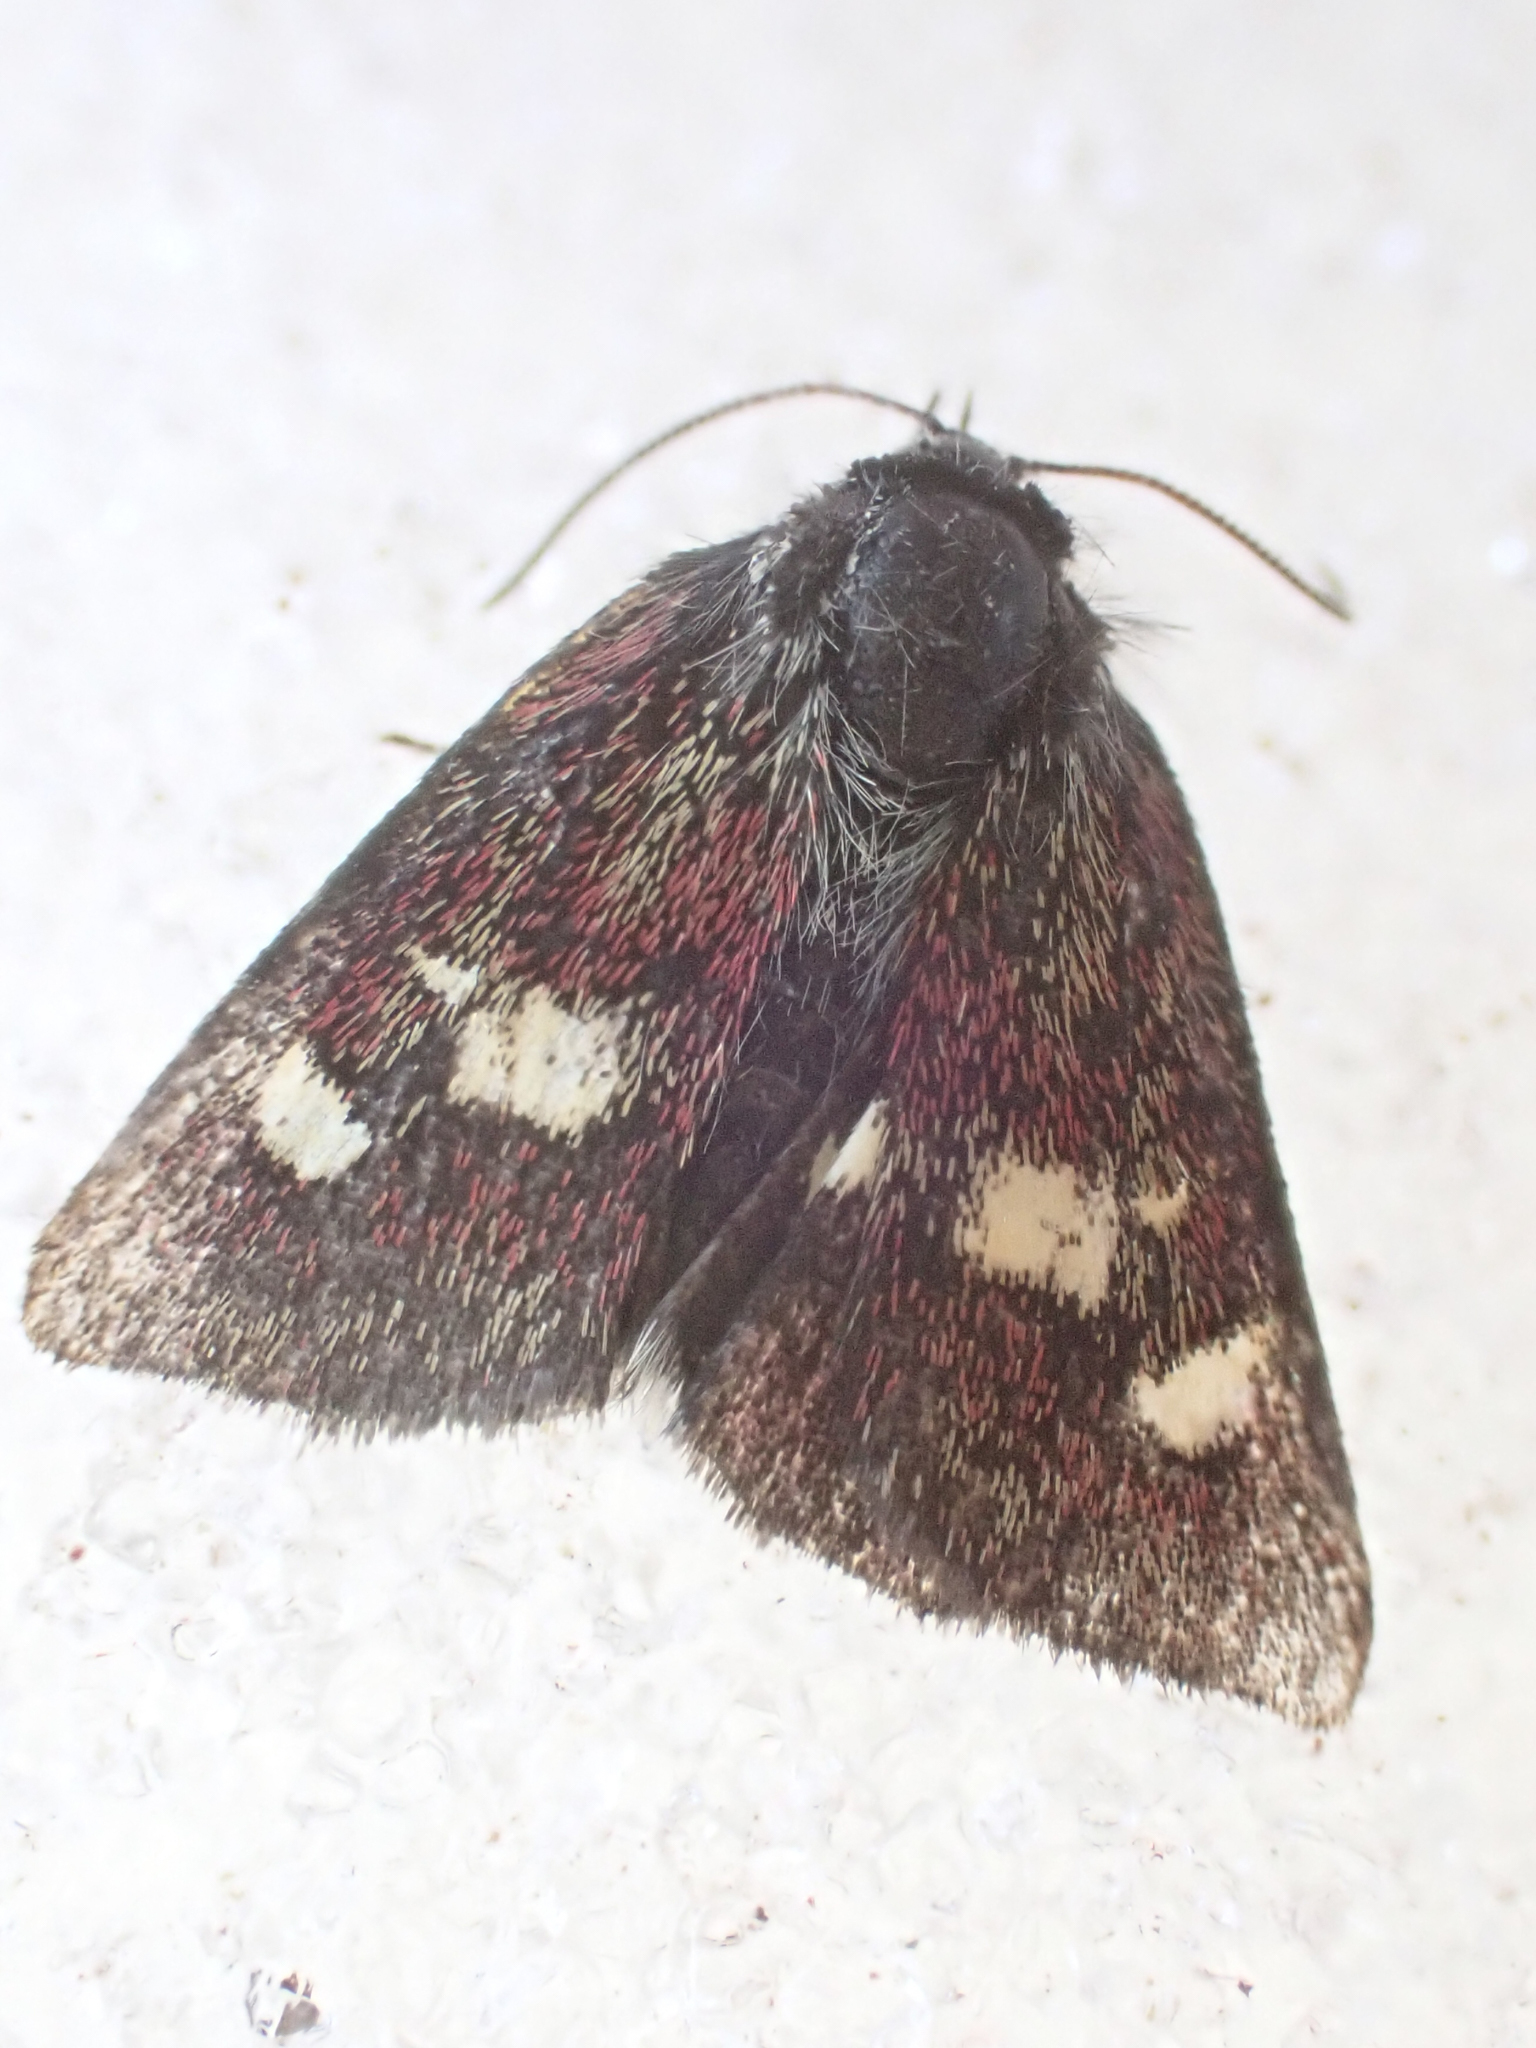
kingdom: Animalia
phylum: Arthropoda
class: Insecta
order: Lepidoptera
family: Noctuidae
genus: Eutricopis
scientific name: Eutricopis nexilis
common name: White-spotted midget moth
